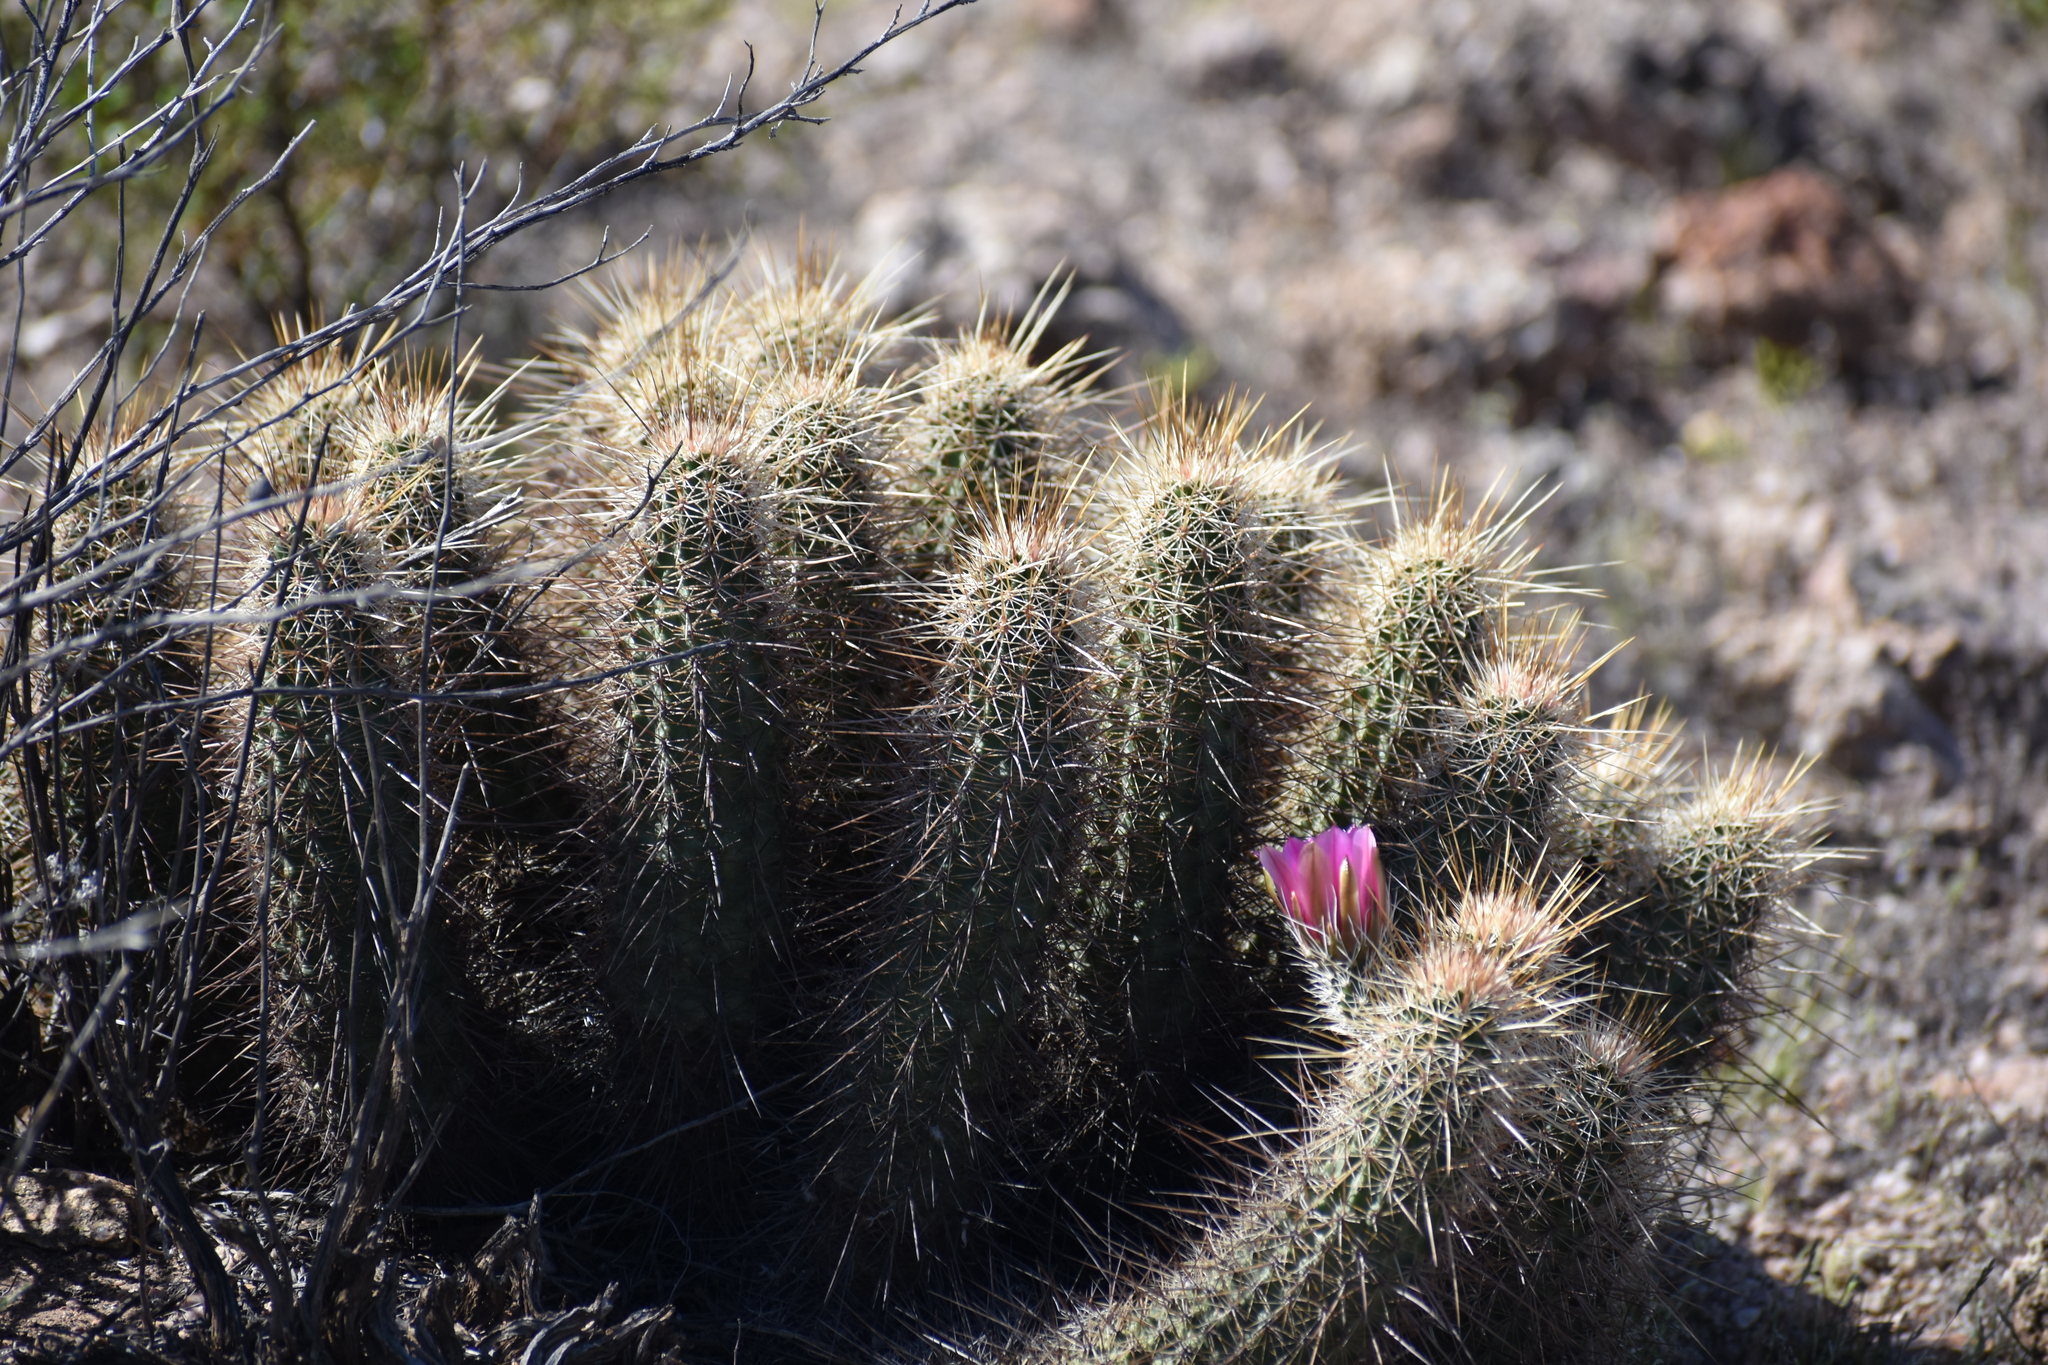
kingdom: Plantae
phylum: Tracheophyta
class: Magnoliopsida
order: Caryophyllales
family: Cactaceae
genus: Echinocereus
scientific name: Echinocereus engelmannii
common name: Engelmann's hedgehog cactus
